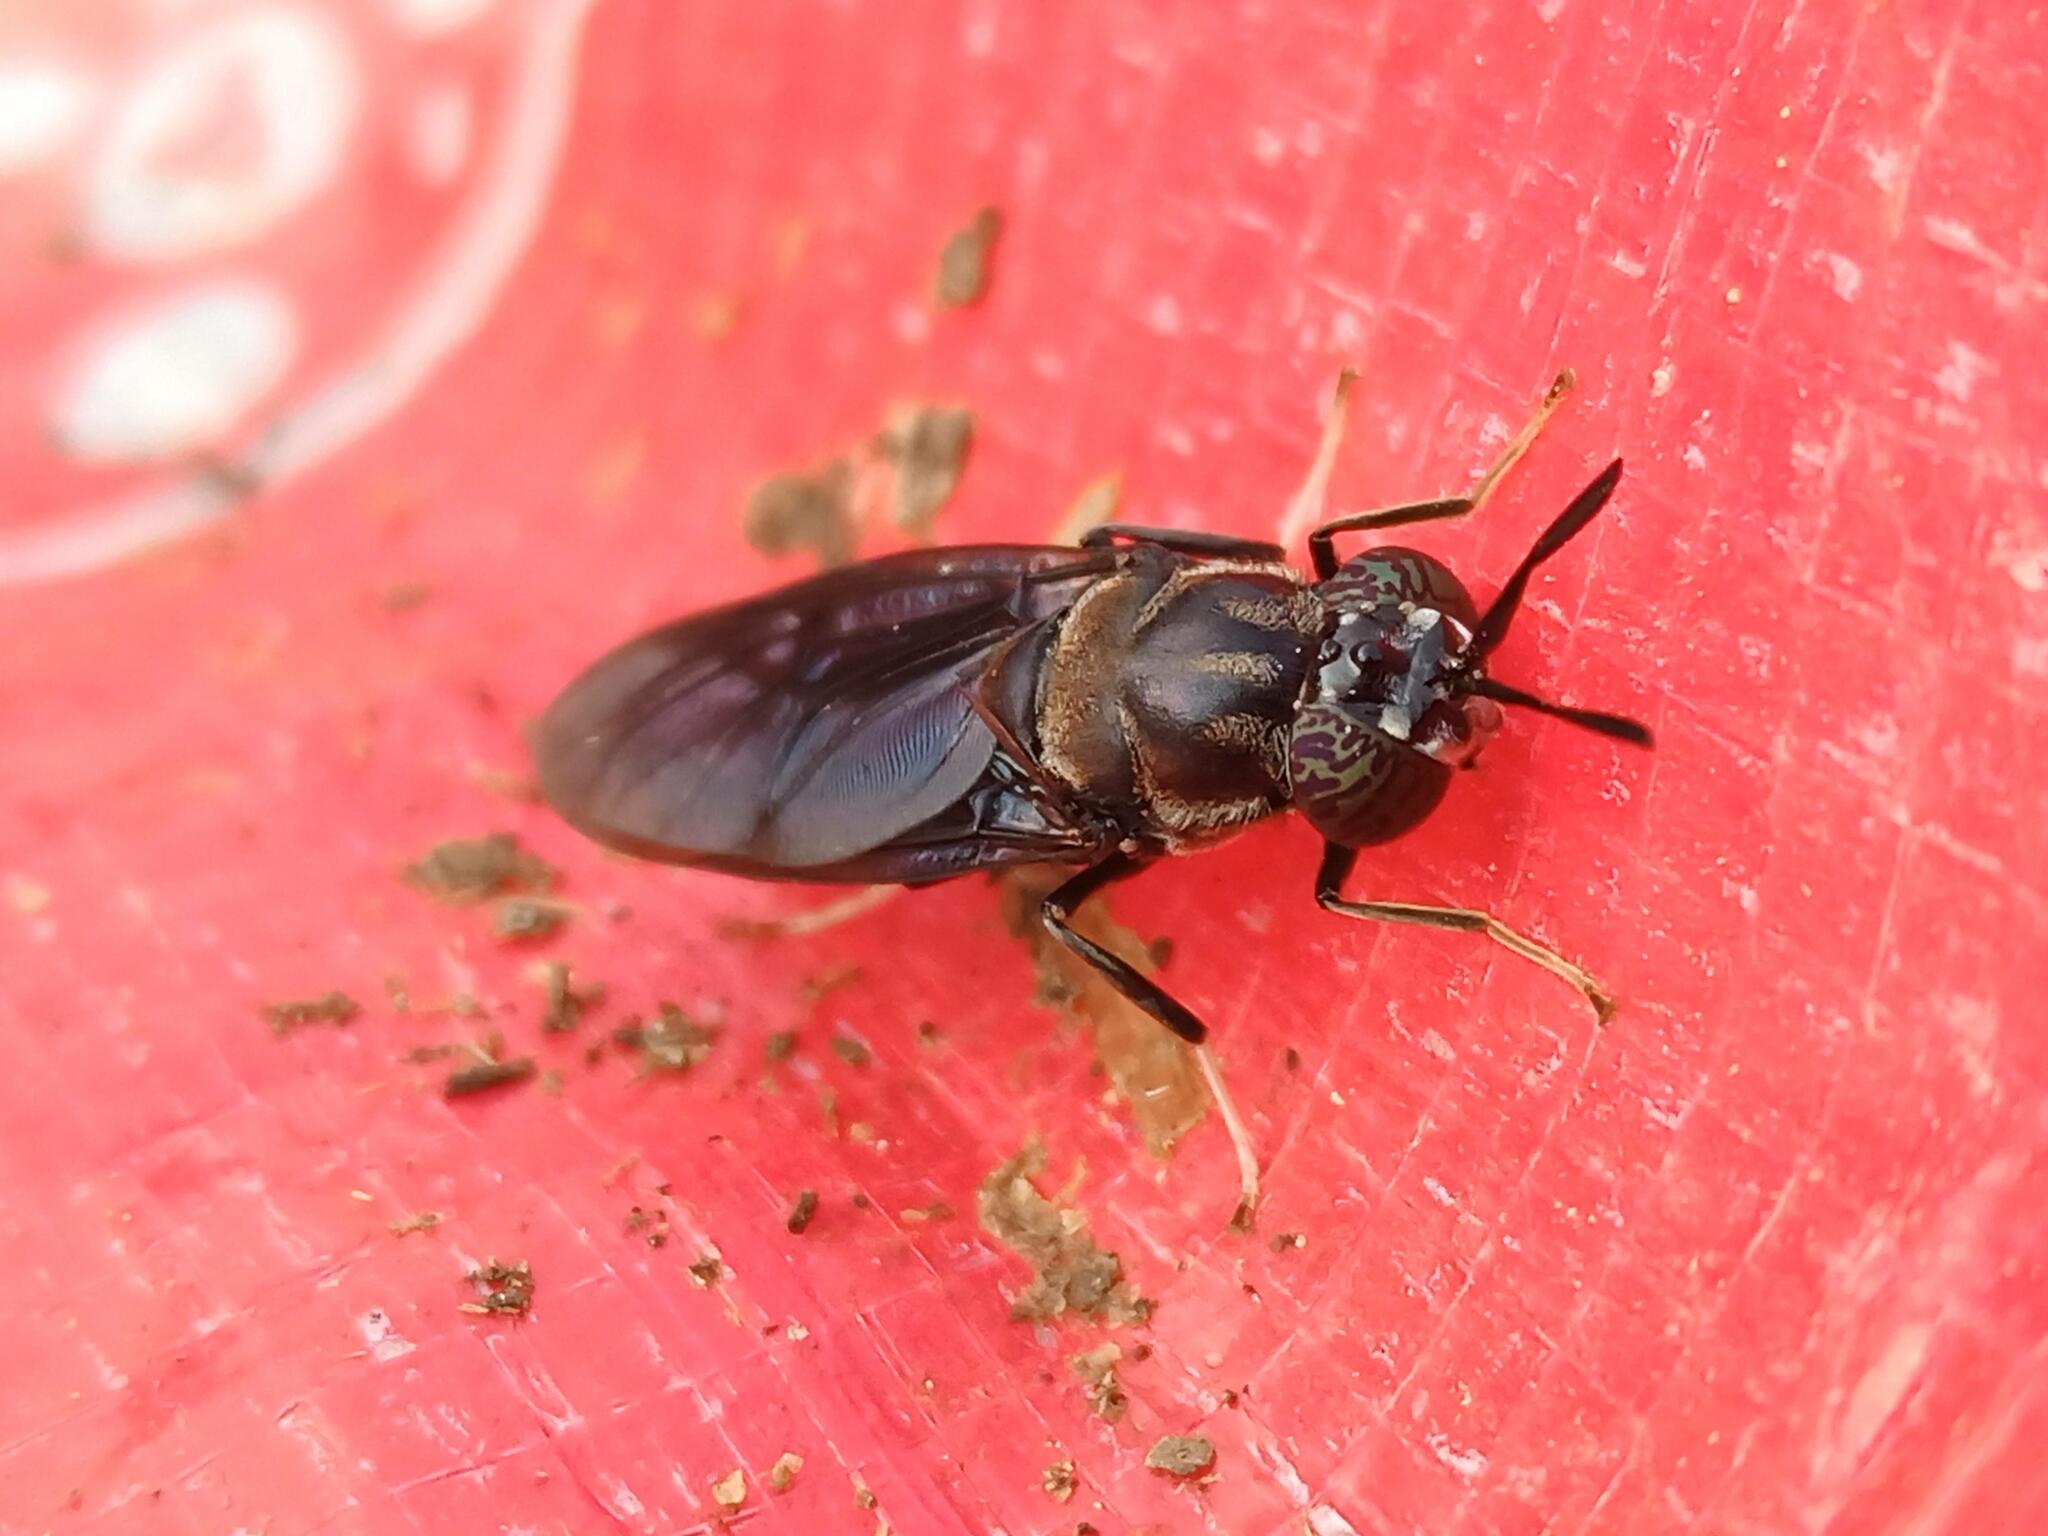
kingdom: Animalia
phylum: Arthropoda
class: Insecta
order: Diptera
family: Stratiomyidae
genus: Hermetia
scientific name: Hermetia illucens
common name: Black soldier fly
